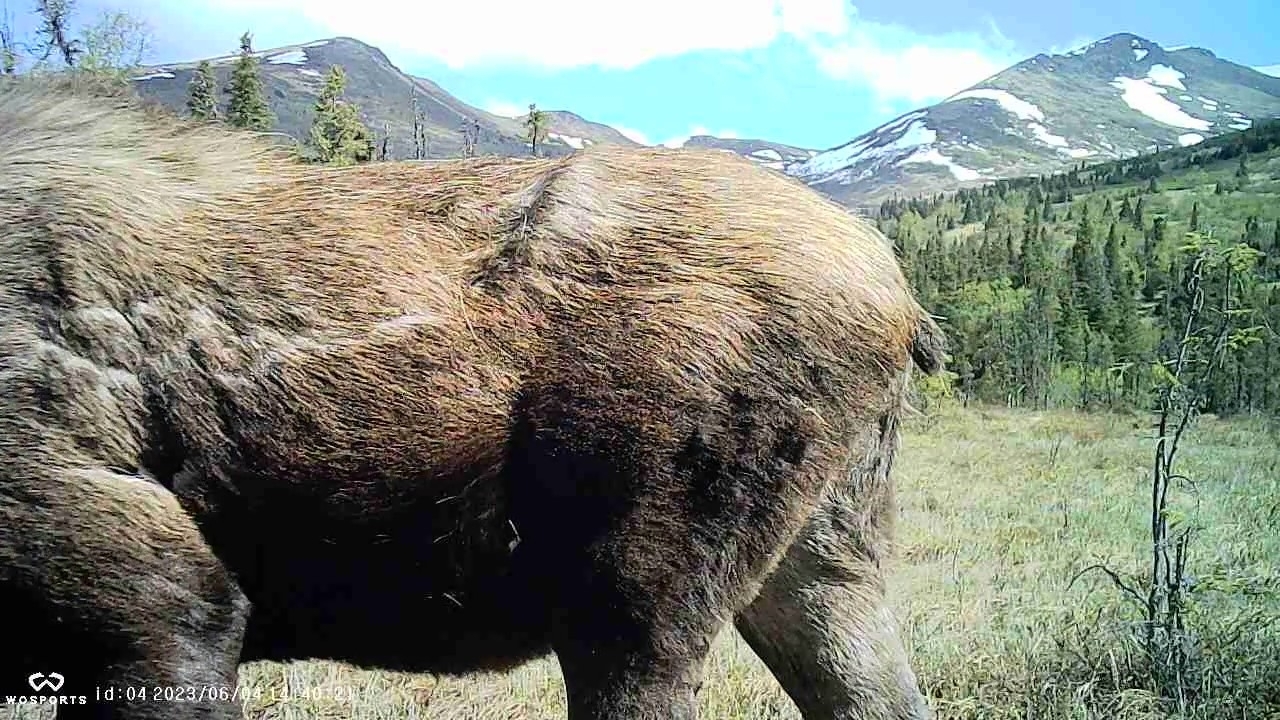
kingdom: Animalia
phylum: Chordata
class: Mammalia
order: Artiodactyla
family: Cervidae
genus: Alces
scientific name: Alces alces
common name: Moose
